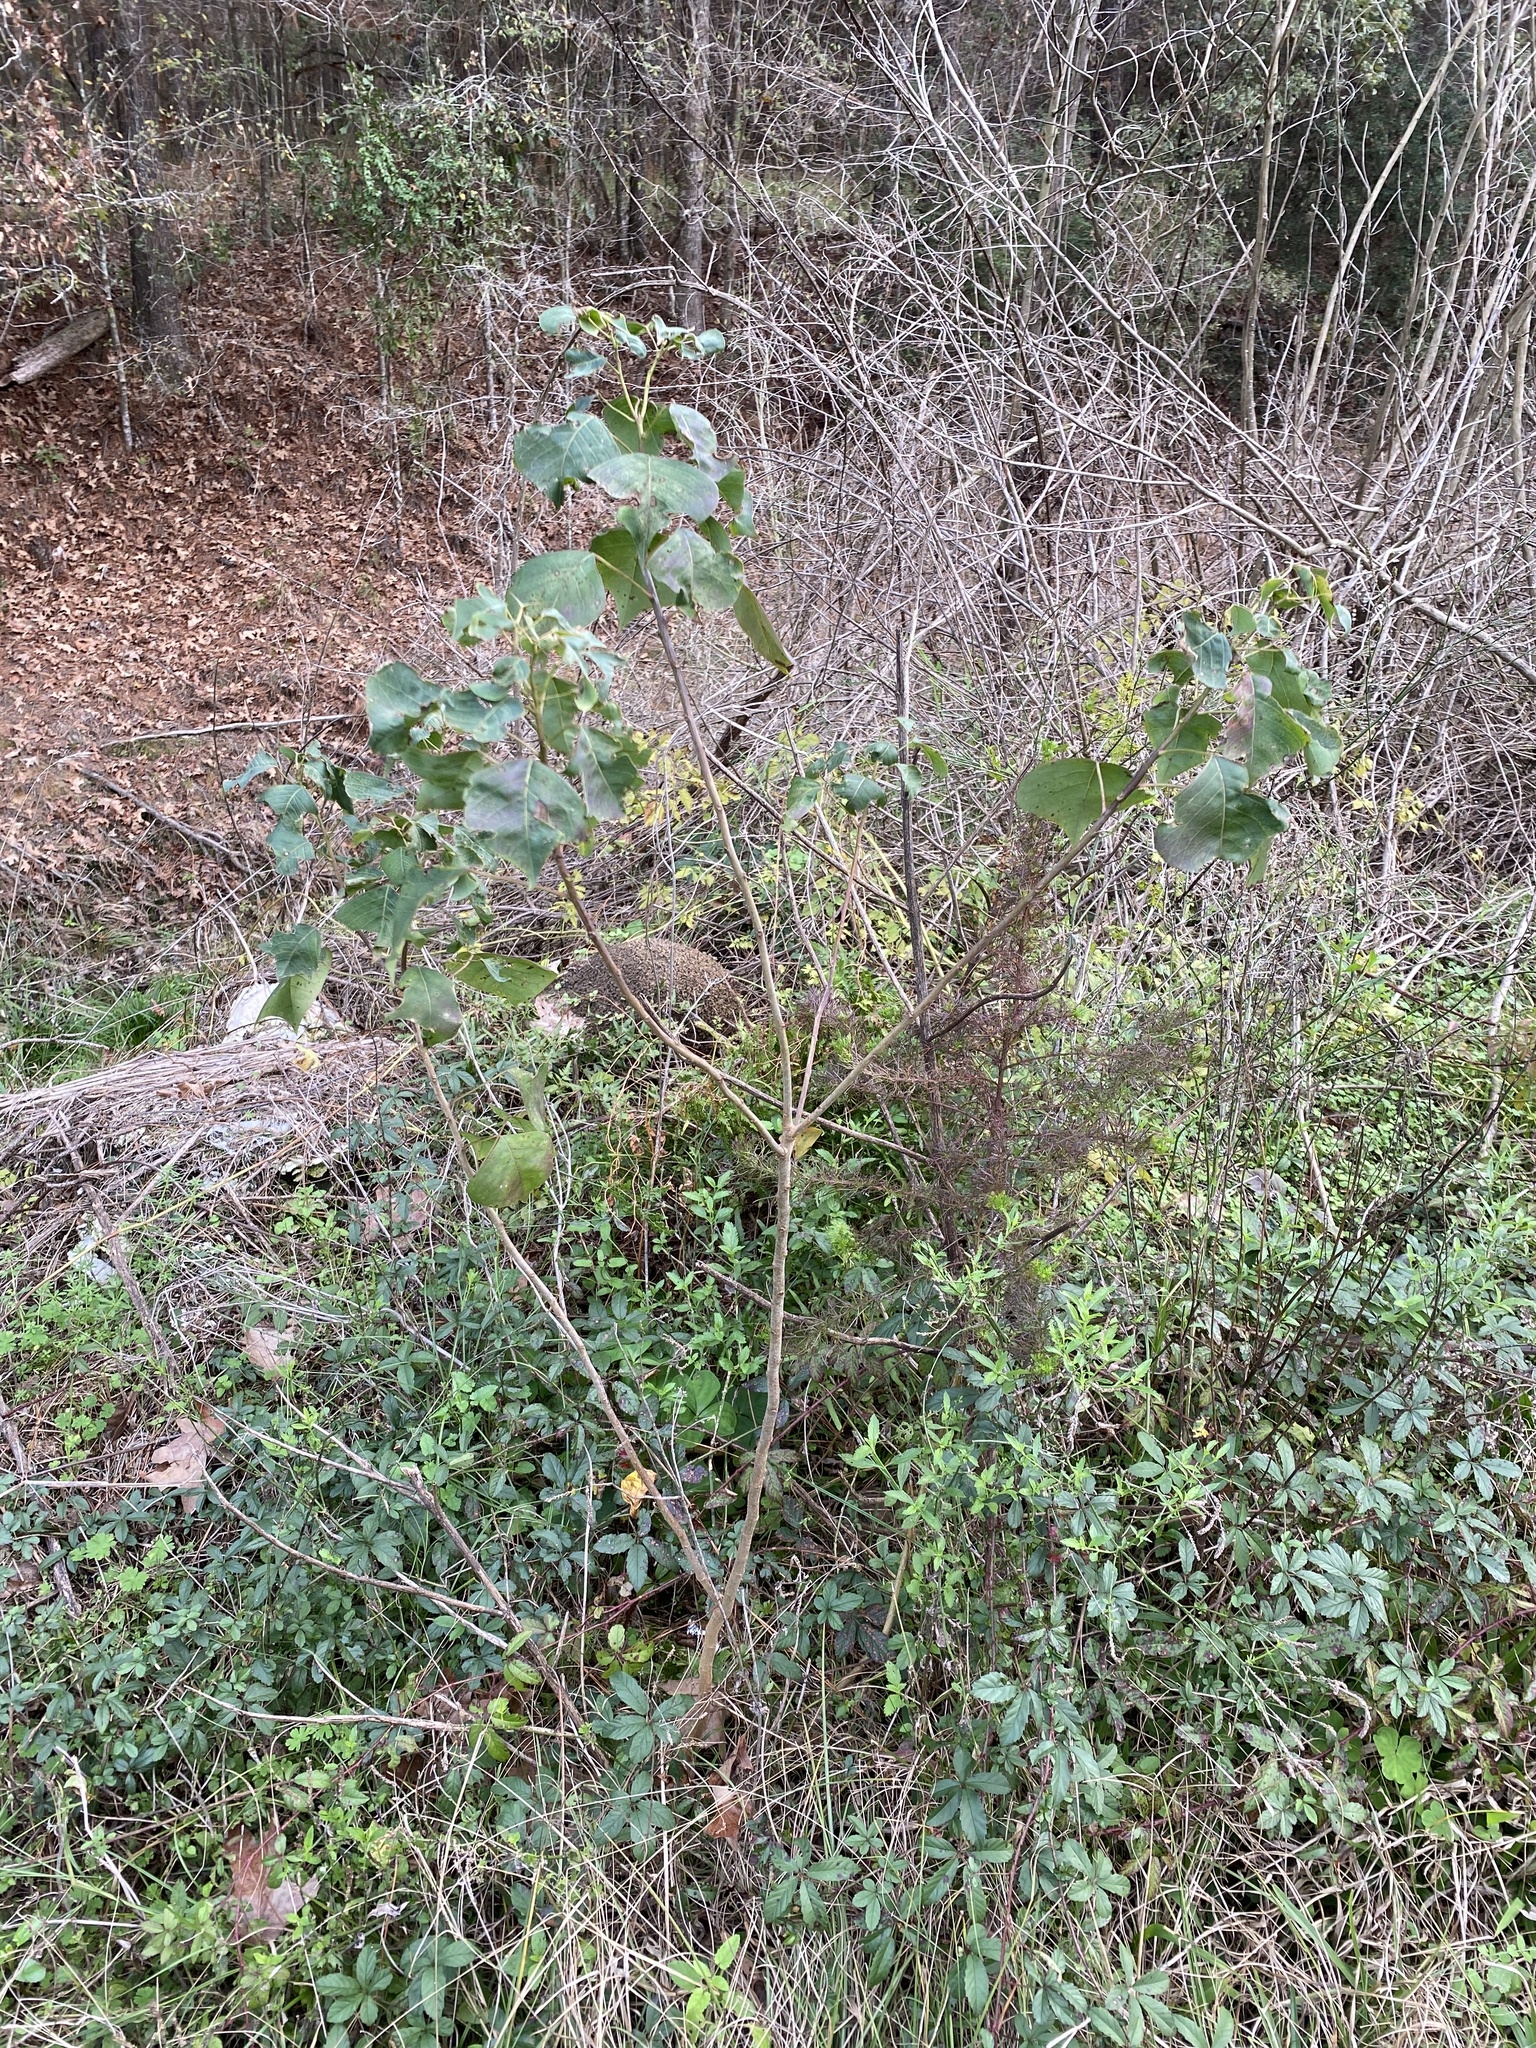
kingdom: Plantae
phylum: Tracheophyta
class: Magnoliopsida
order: Malpighiales
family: Euphorbiaceae
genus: Triadica
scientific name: Triadica sebifera
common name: Chinese tallow
